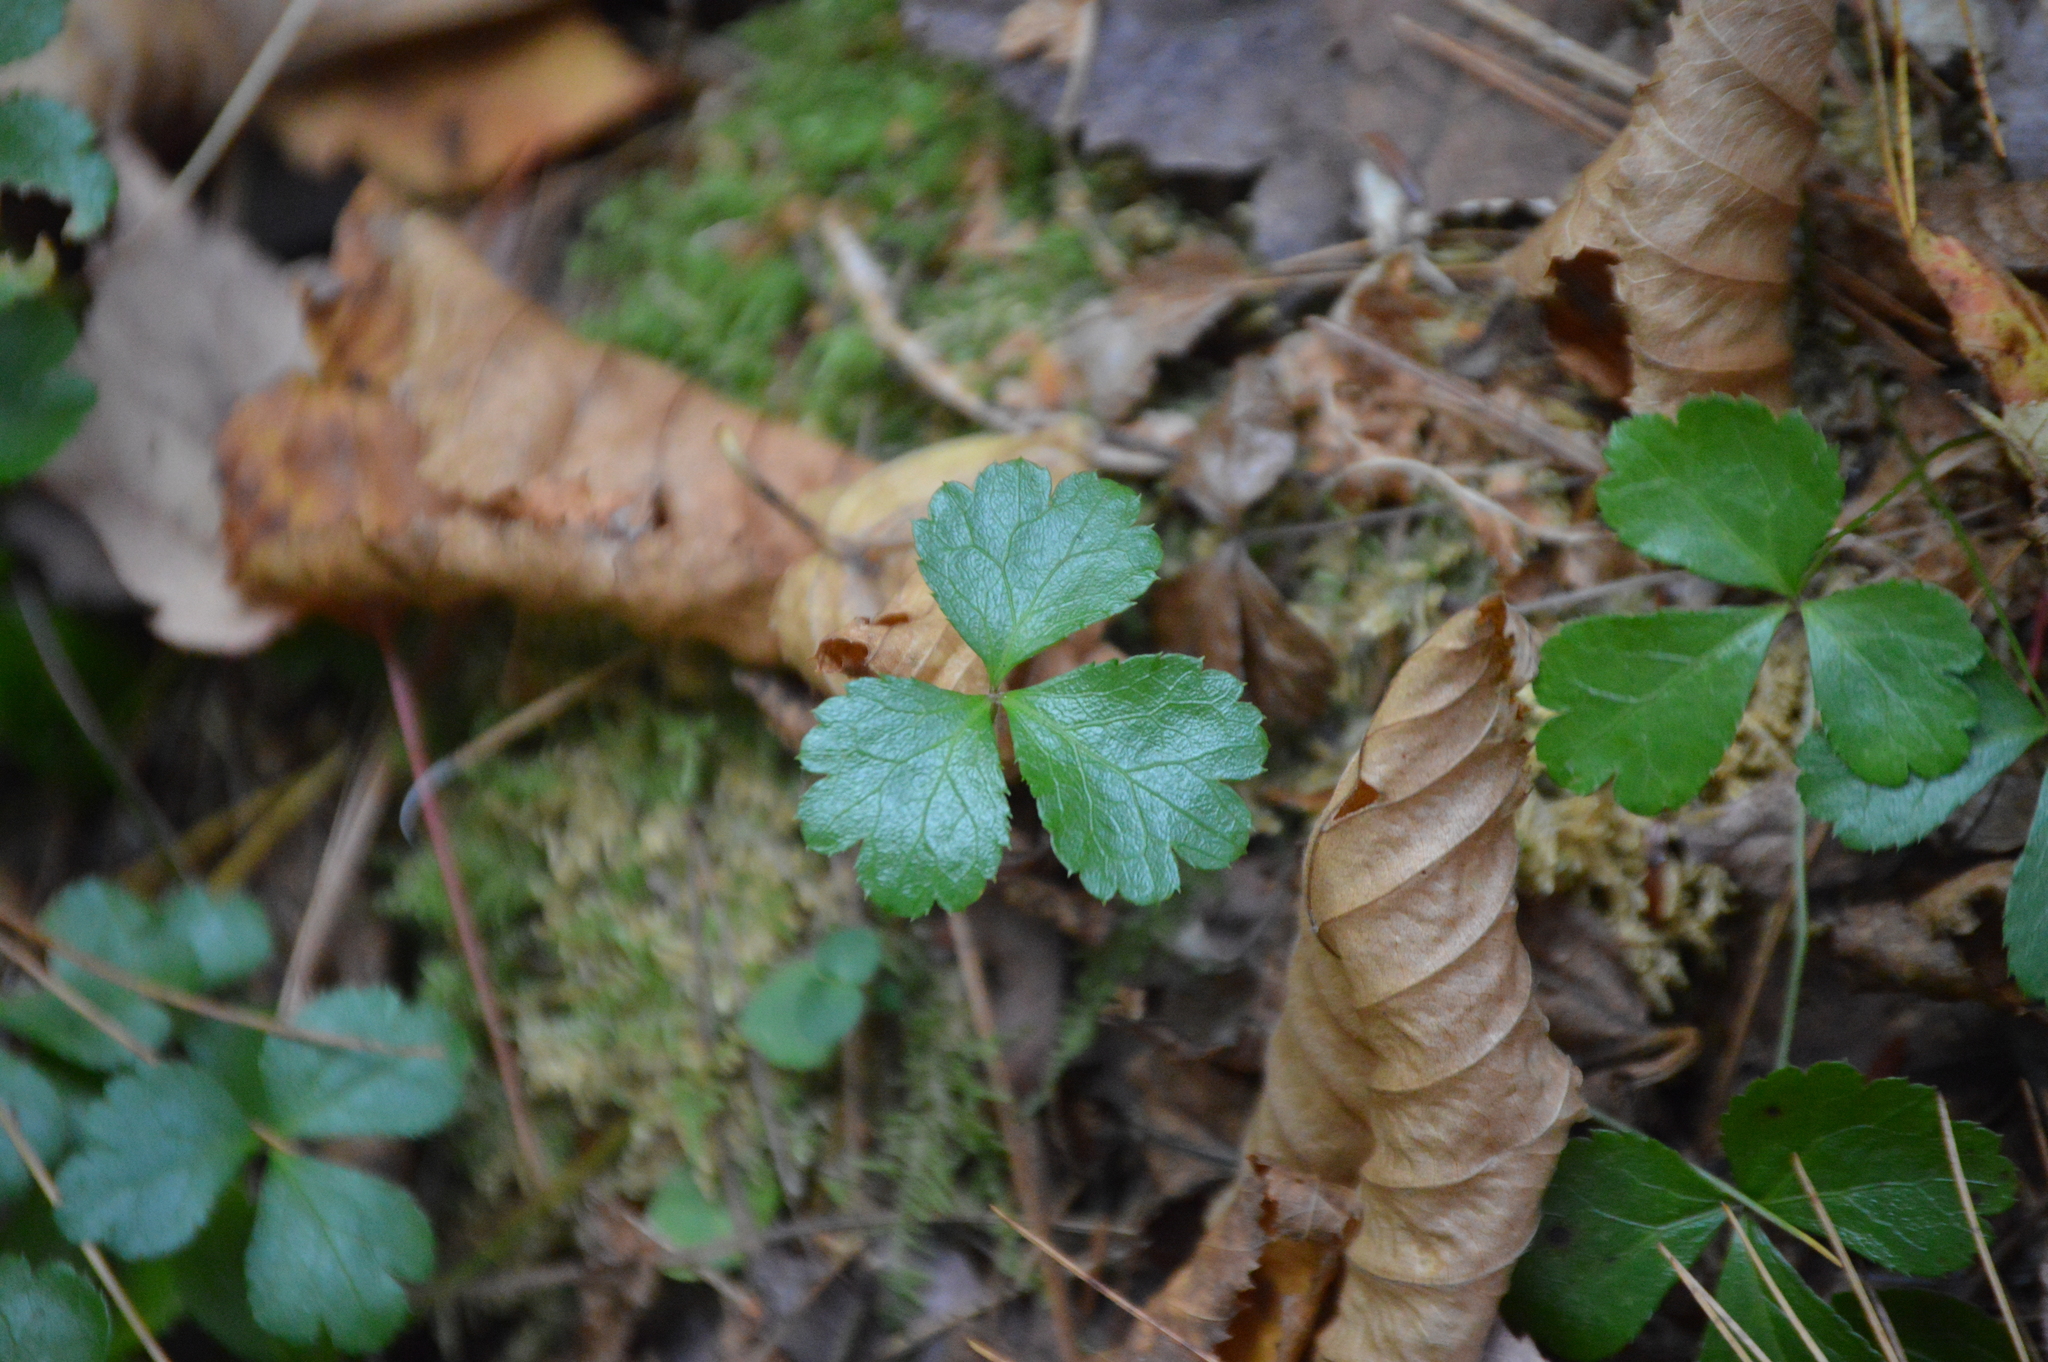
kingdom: Plantae
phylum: Tracheophyta
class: Magnoliopsida
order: Ranunculales
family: Ranunculaceae
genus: Coptis
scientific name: Coptis trifolia
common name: Canker-root
